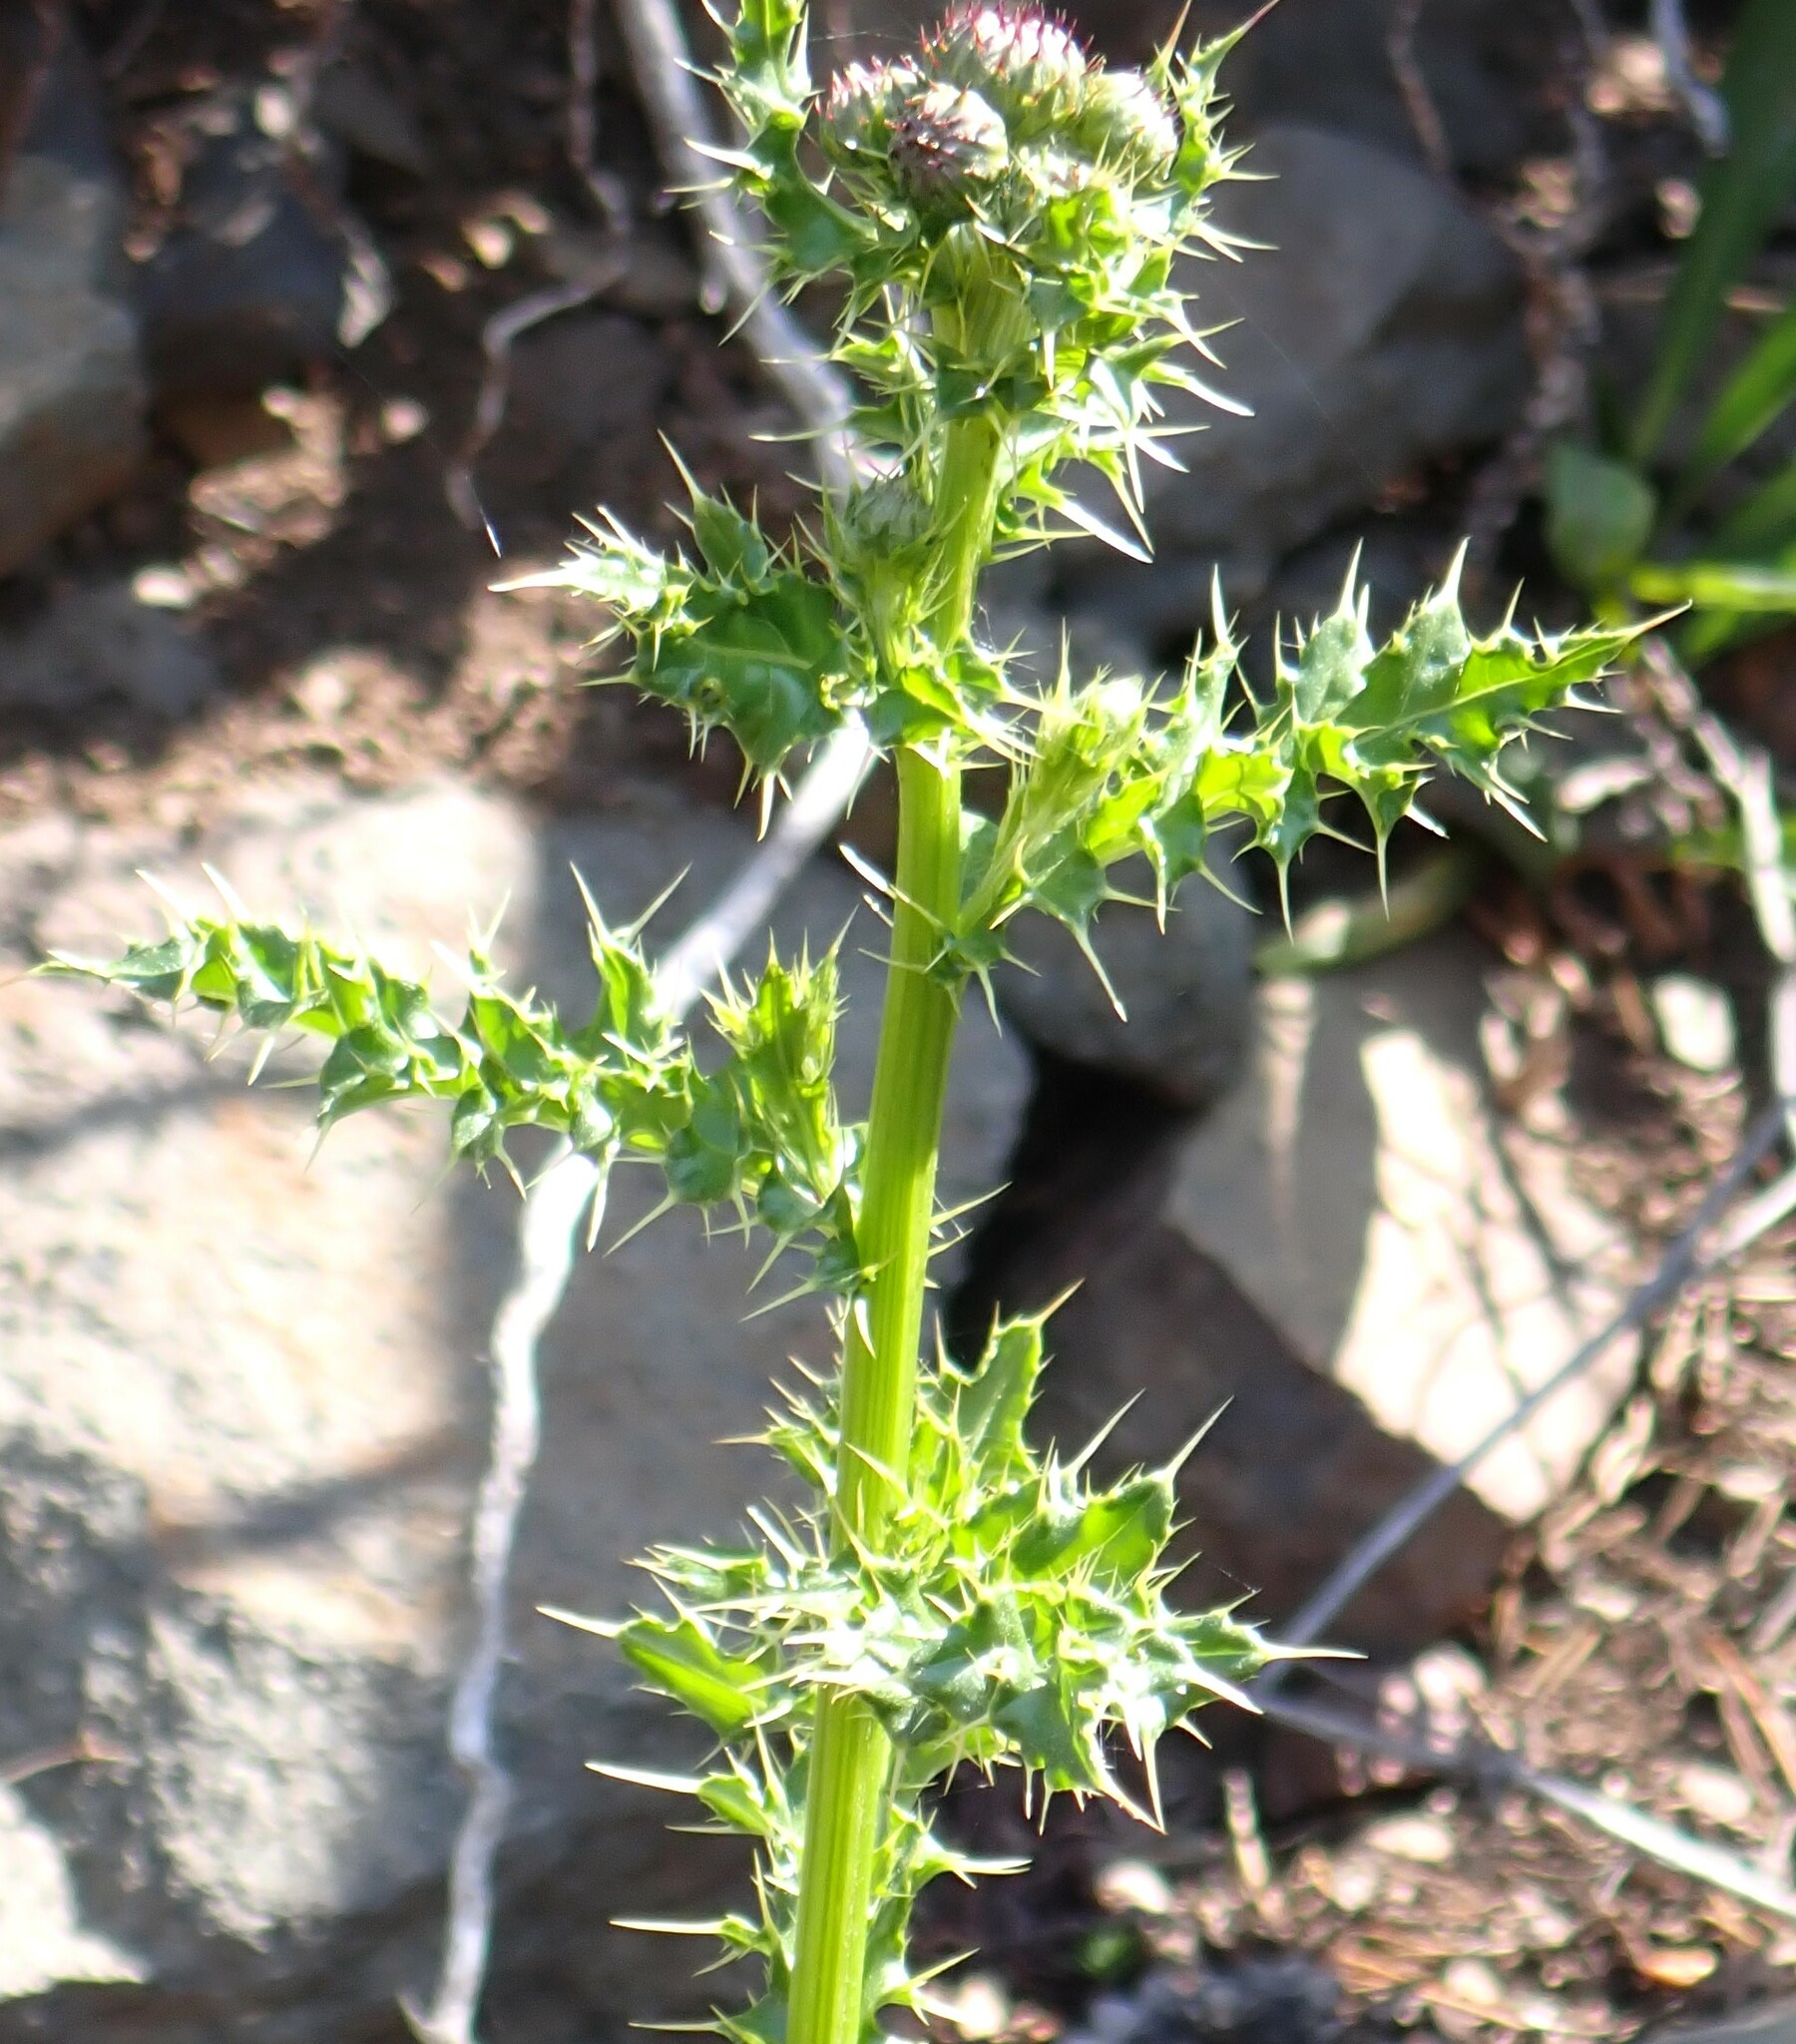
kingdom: Plantae
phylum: Tracheophyta
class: Magnoliopsida
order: Asterales
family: Asteraceae
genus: Cirsium
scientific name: Cirsium arvense
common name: Creeping thistle
